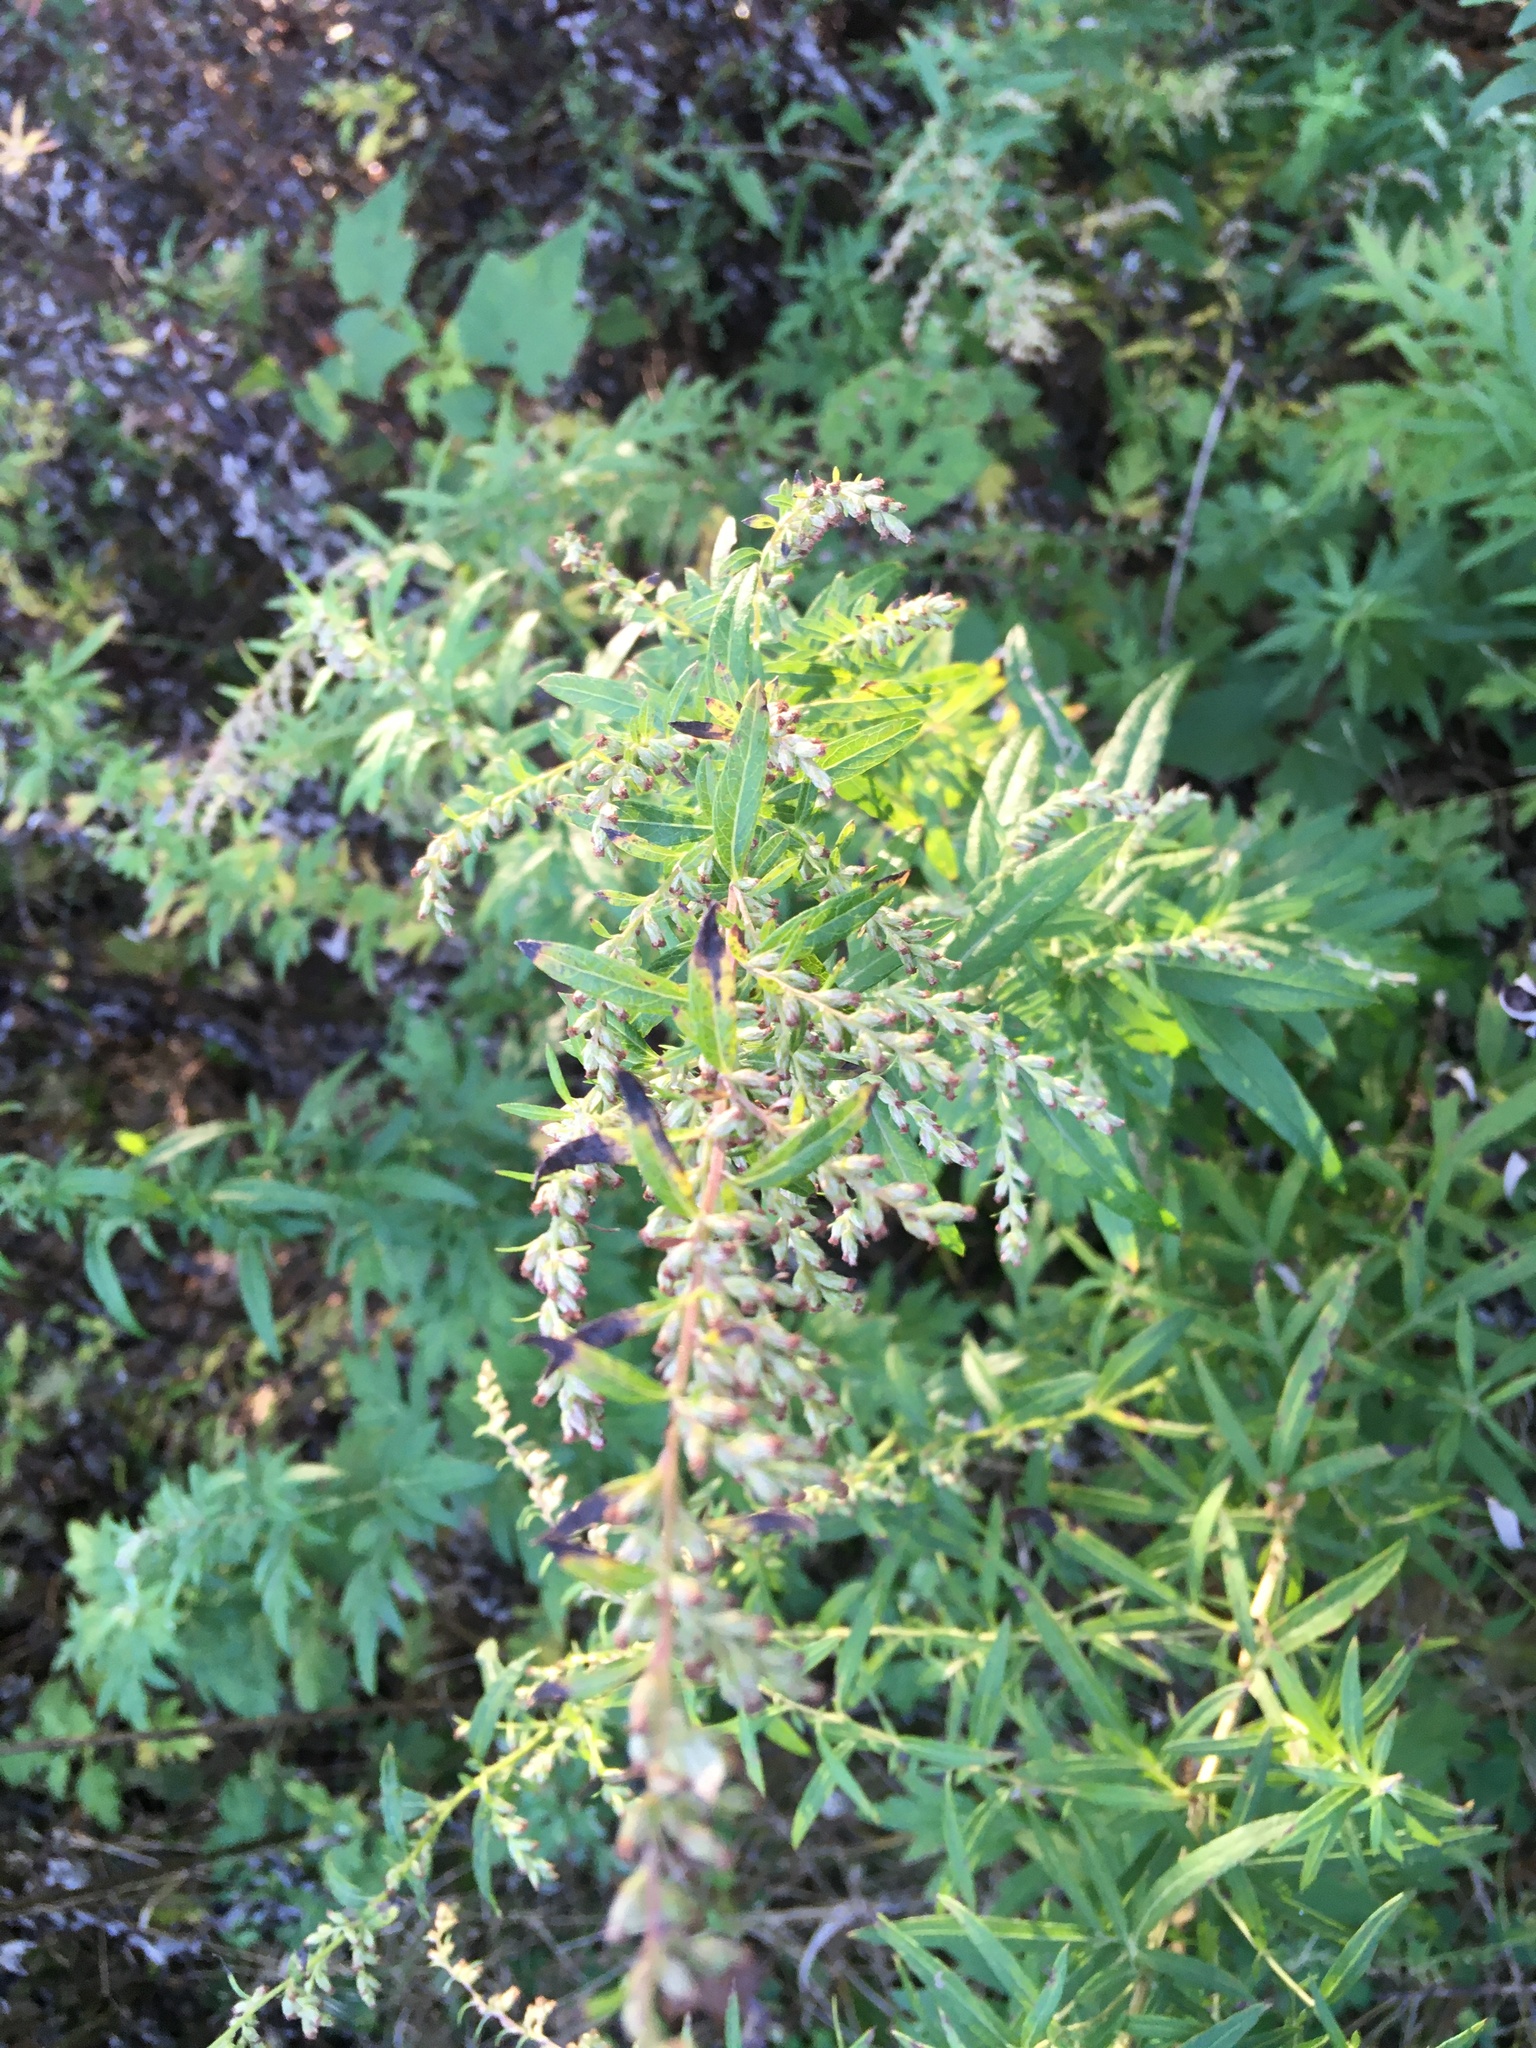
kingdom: Plantae
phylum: Tracheophyta
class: Magnoliopsida
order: Asterales
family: Asteraceae
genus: Artemisia
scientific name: Artemisia vulgaris
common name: Mugwort
